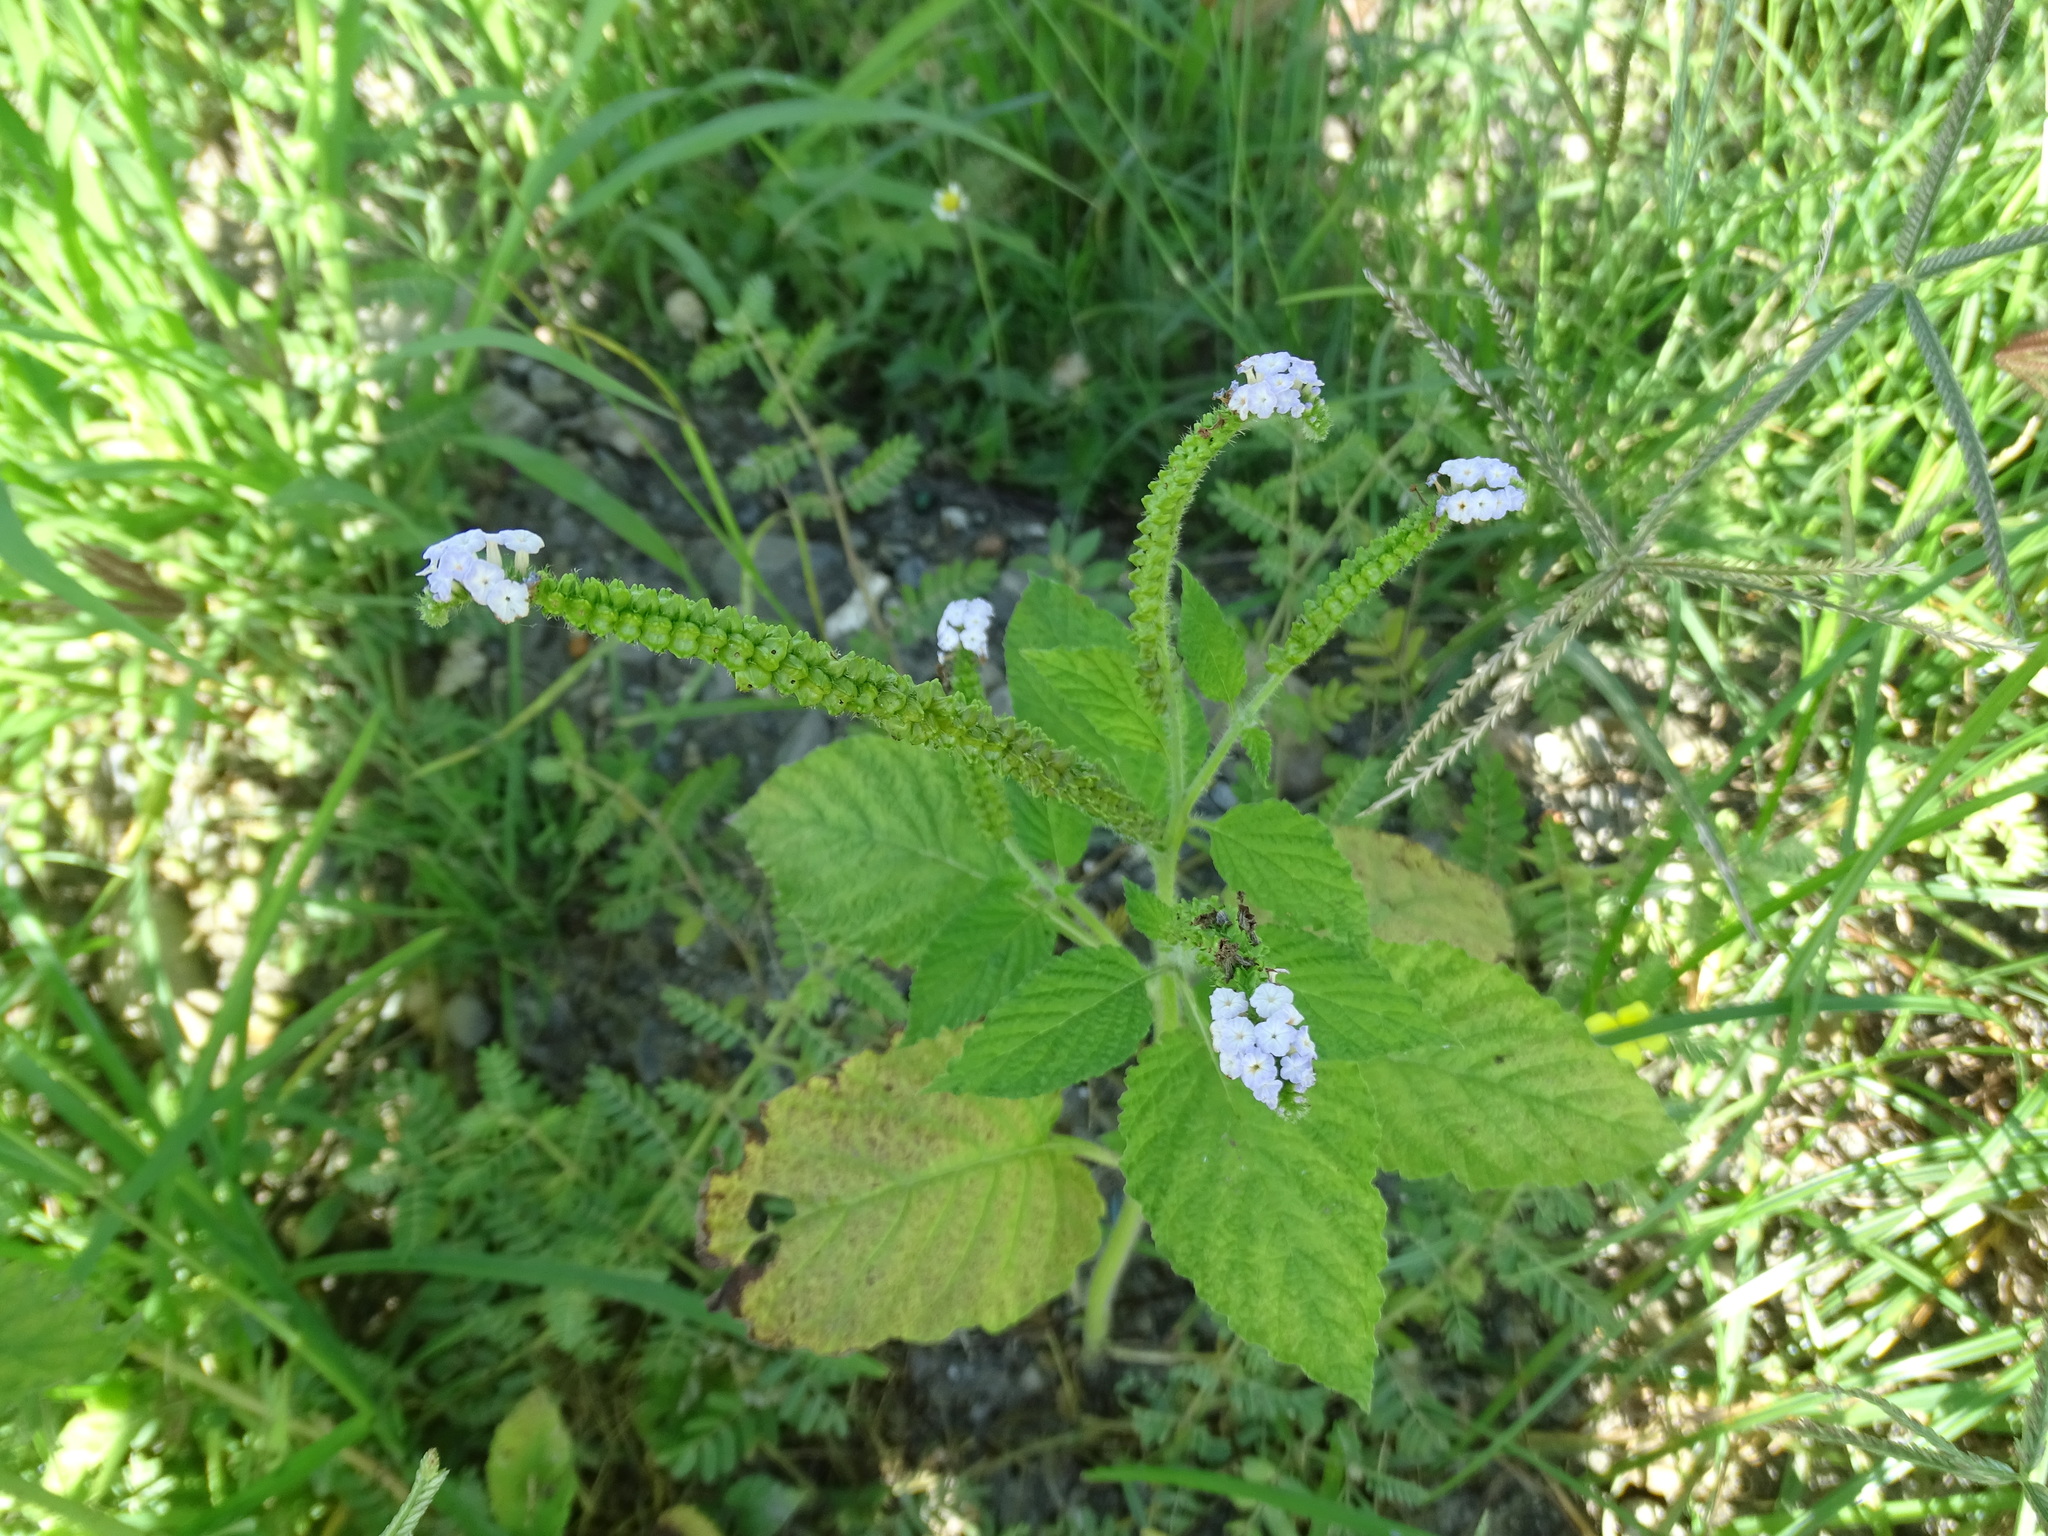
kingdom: Plantae
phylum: Tracheophyta
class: Magnoliopsida
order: Boraginales
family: Heliotropiaceae
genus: Heliotropium
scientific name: Heliotropium indicum
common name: Indian heliotrope
